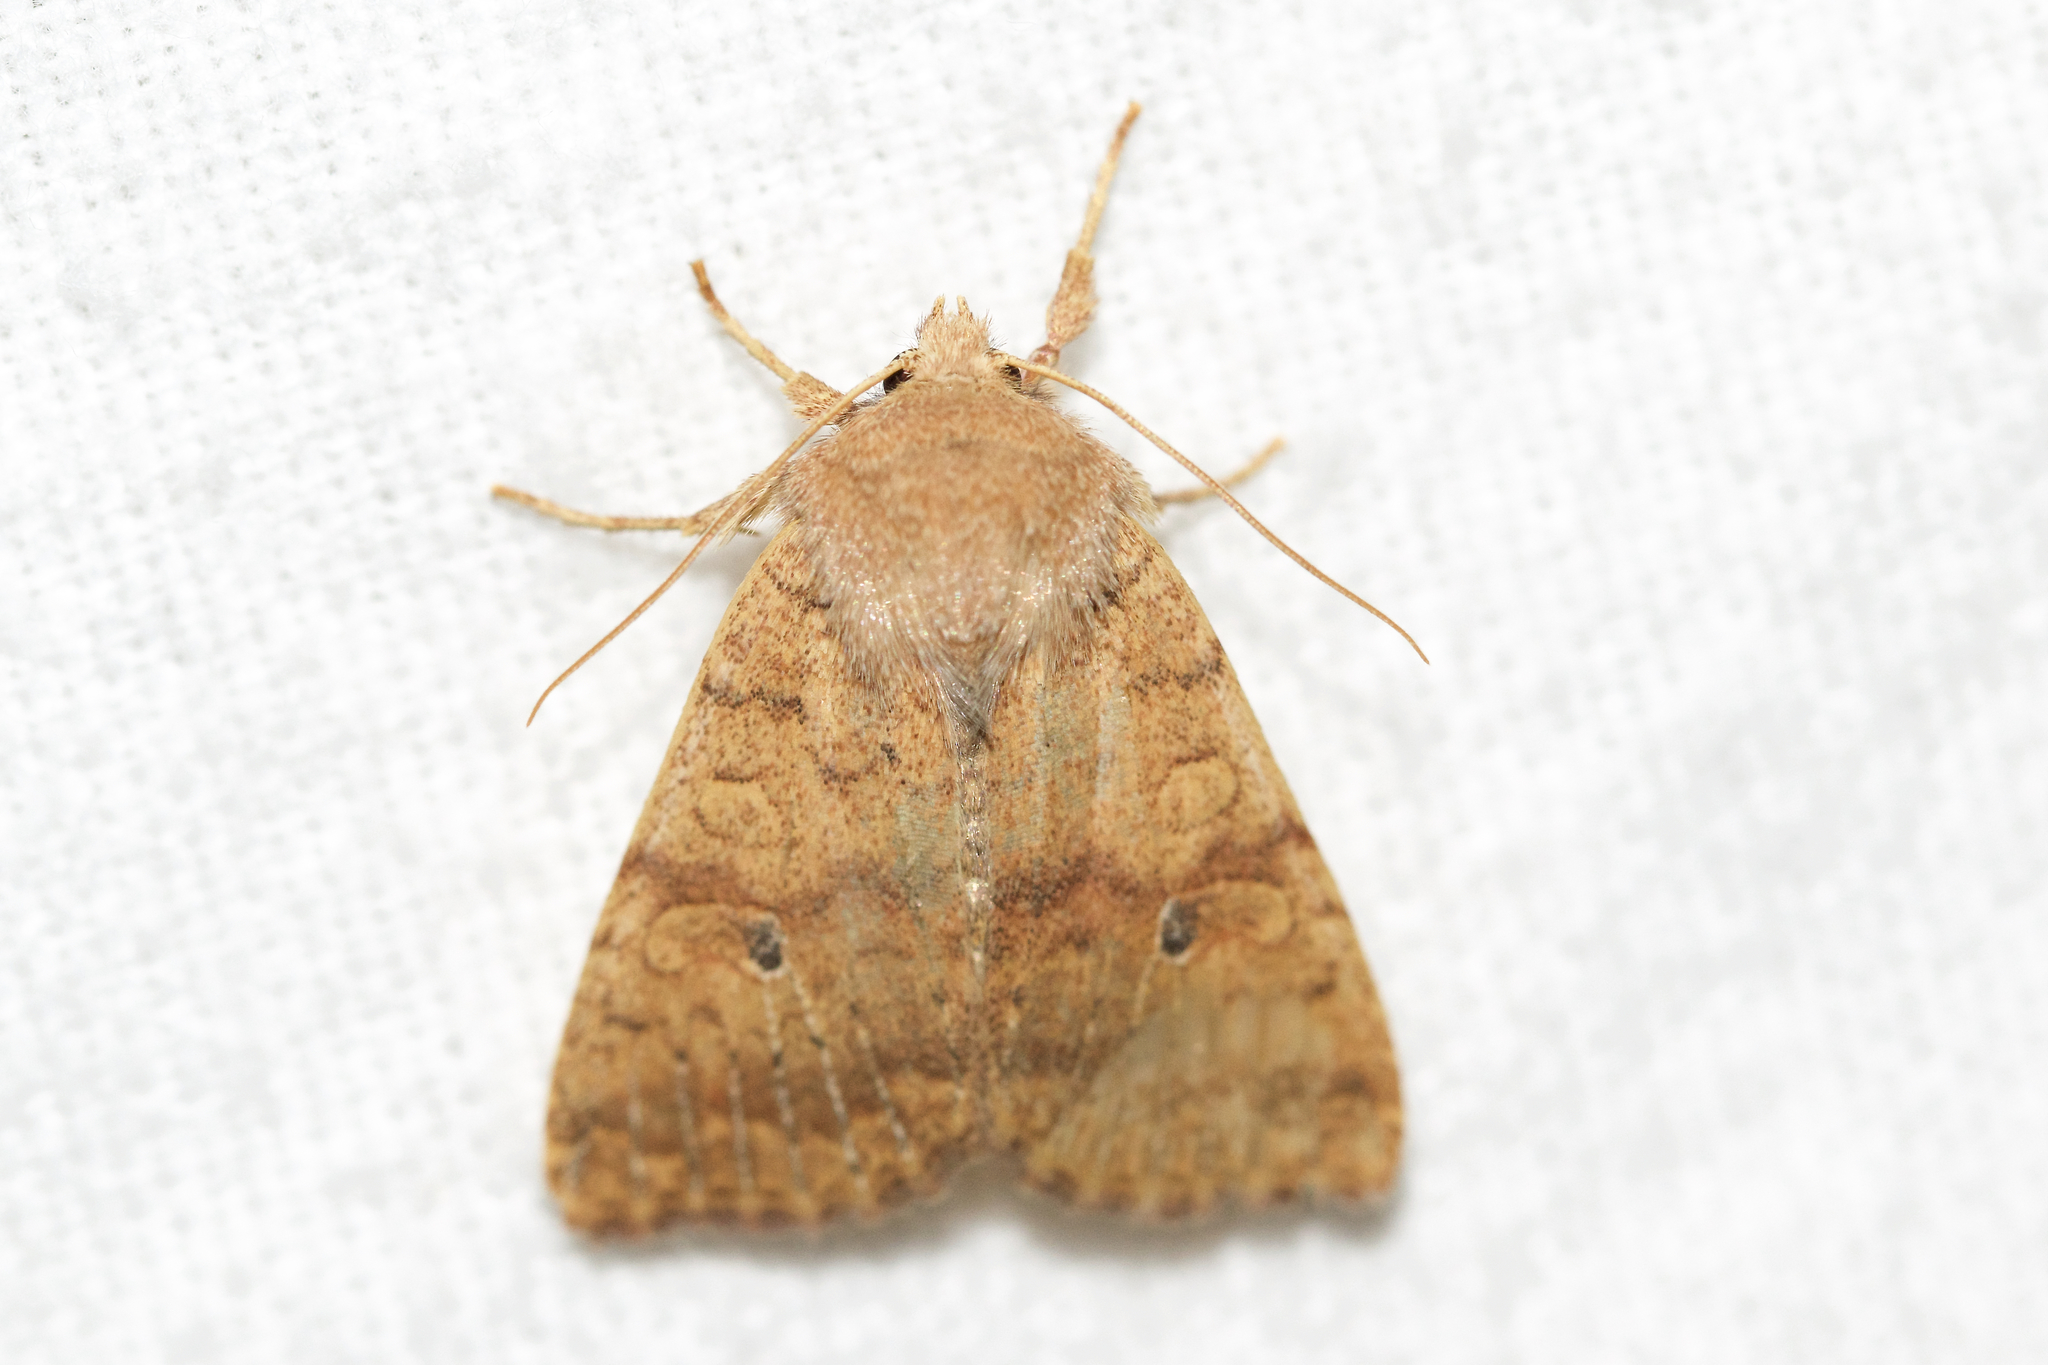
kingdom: Animalia
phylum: Arthropoda
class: Insecta
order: Lepidoptera
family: Noctuidae
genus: Agrochola
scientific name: Agrochola bicolorago
